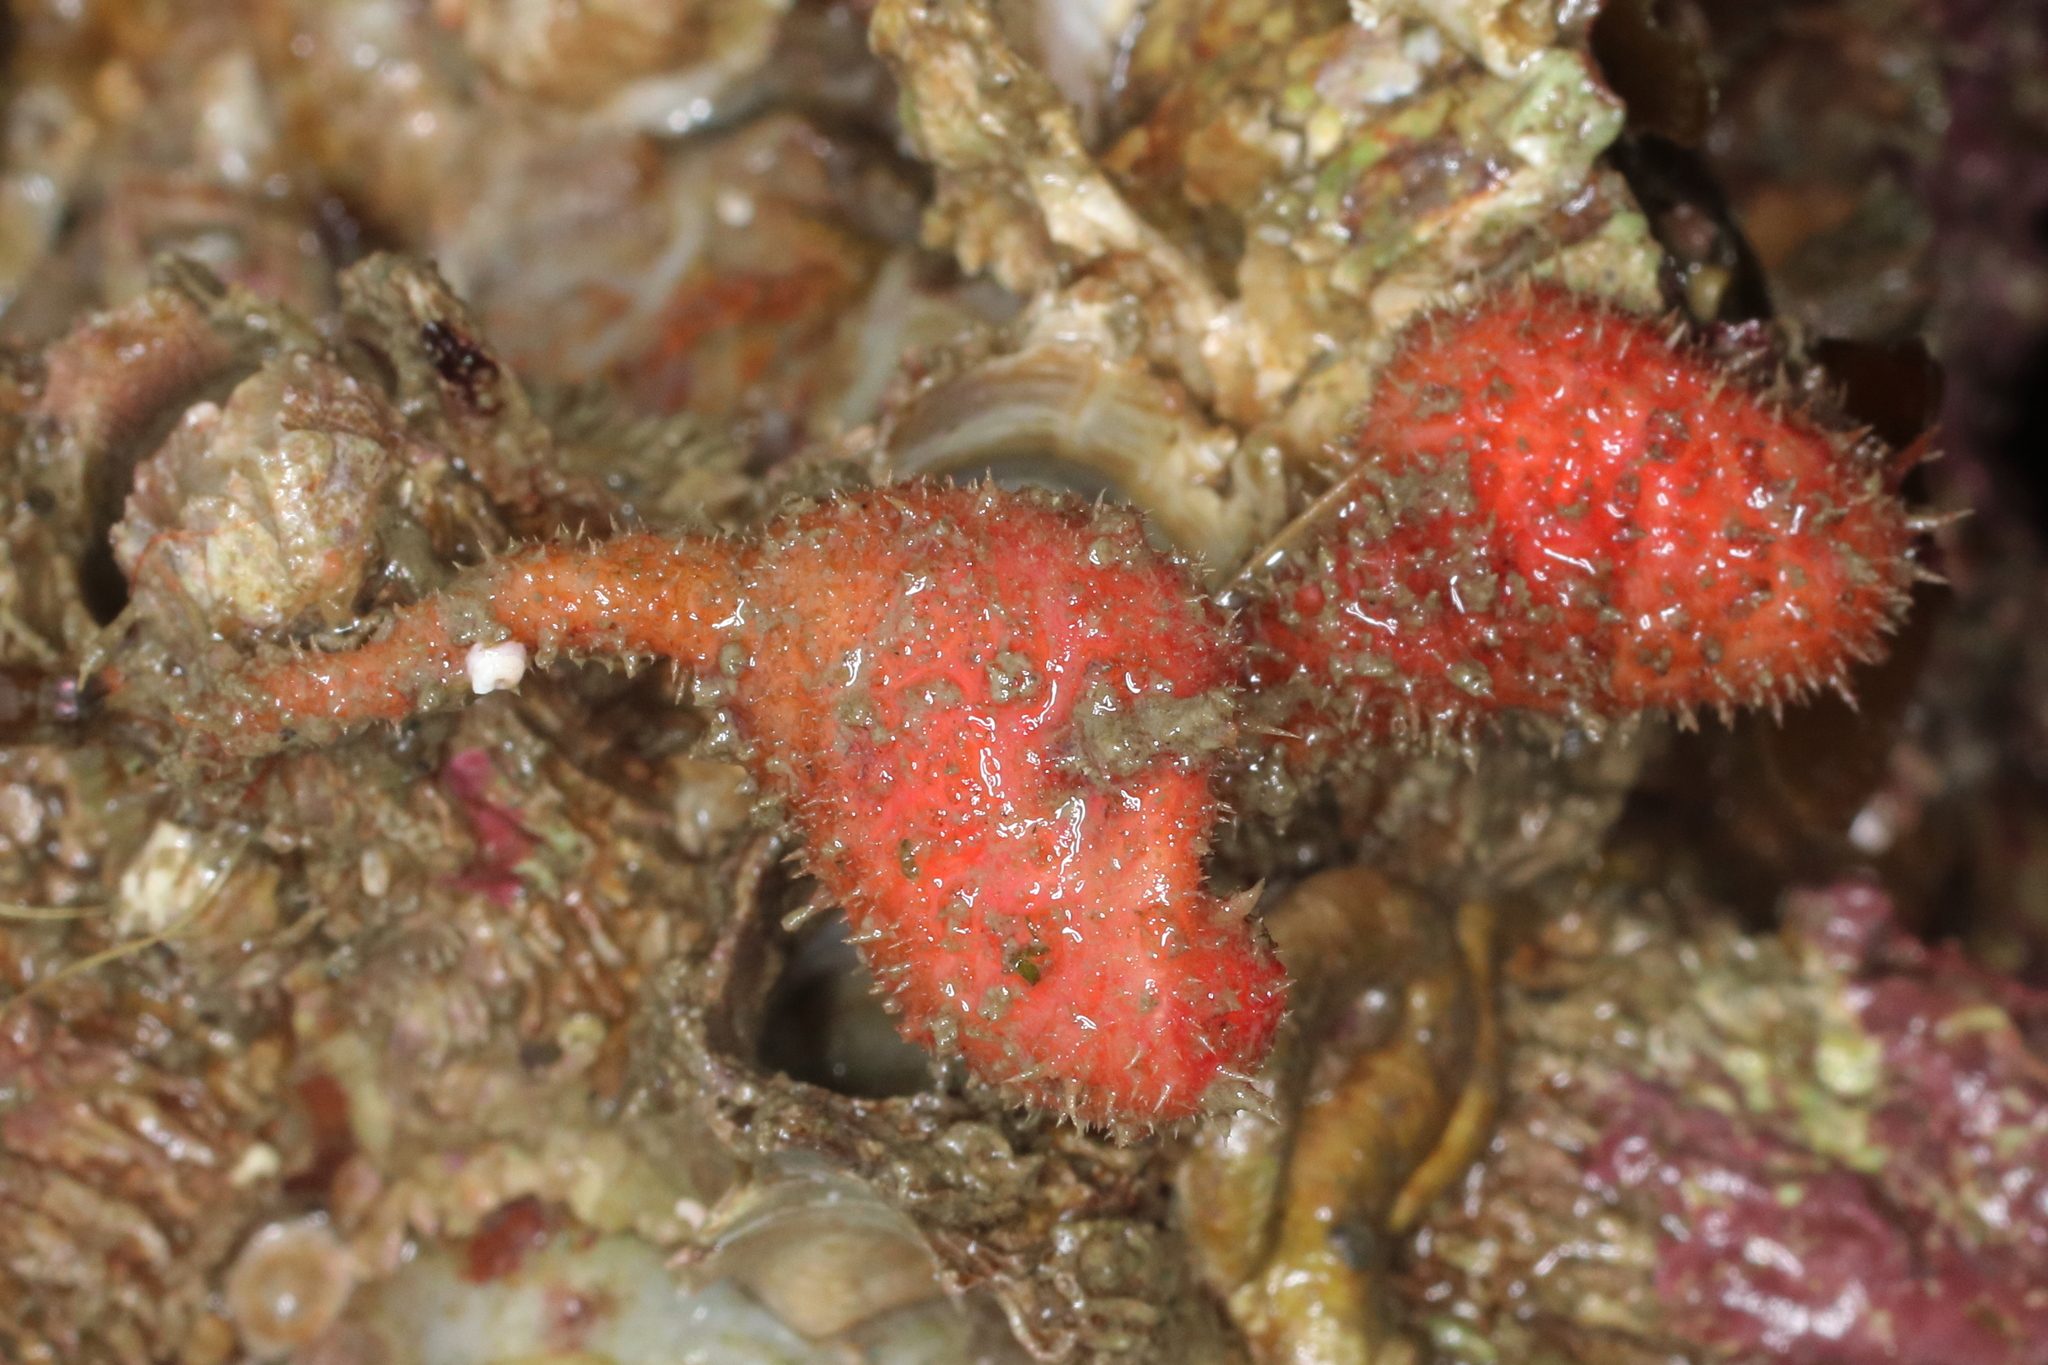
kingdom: Animalia
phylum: Chordata
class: Ascidiacea
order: Stolidobranchia
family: Pyuridae
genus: Boltenia
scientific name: Boltenia villosa
